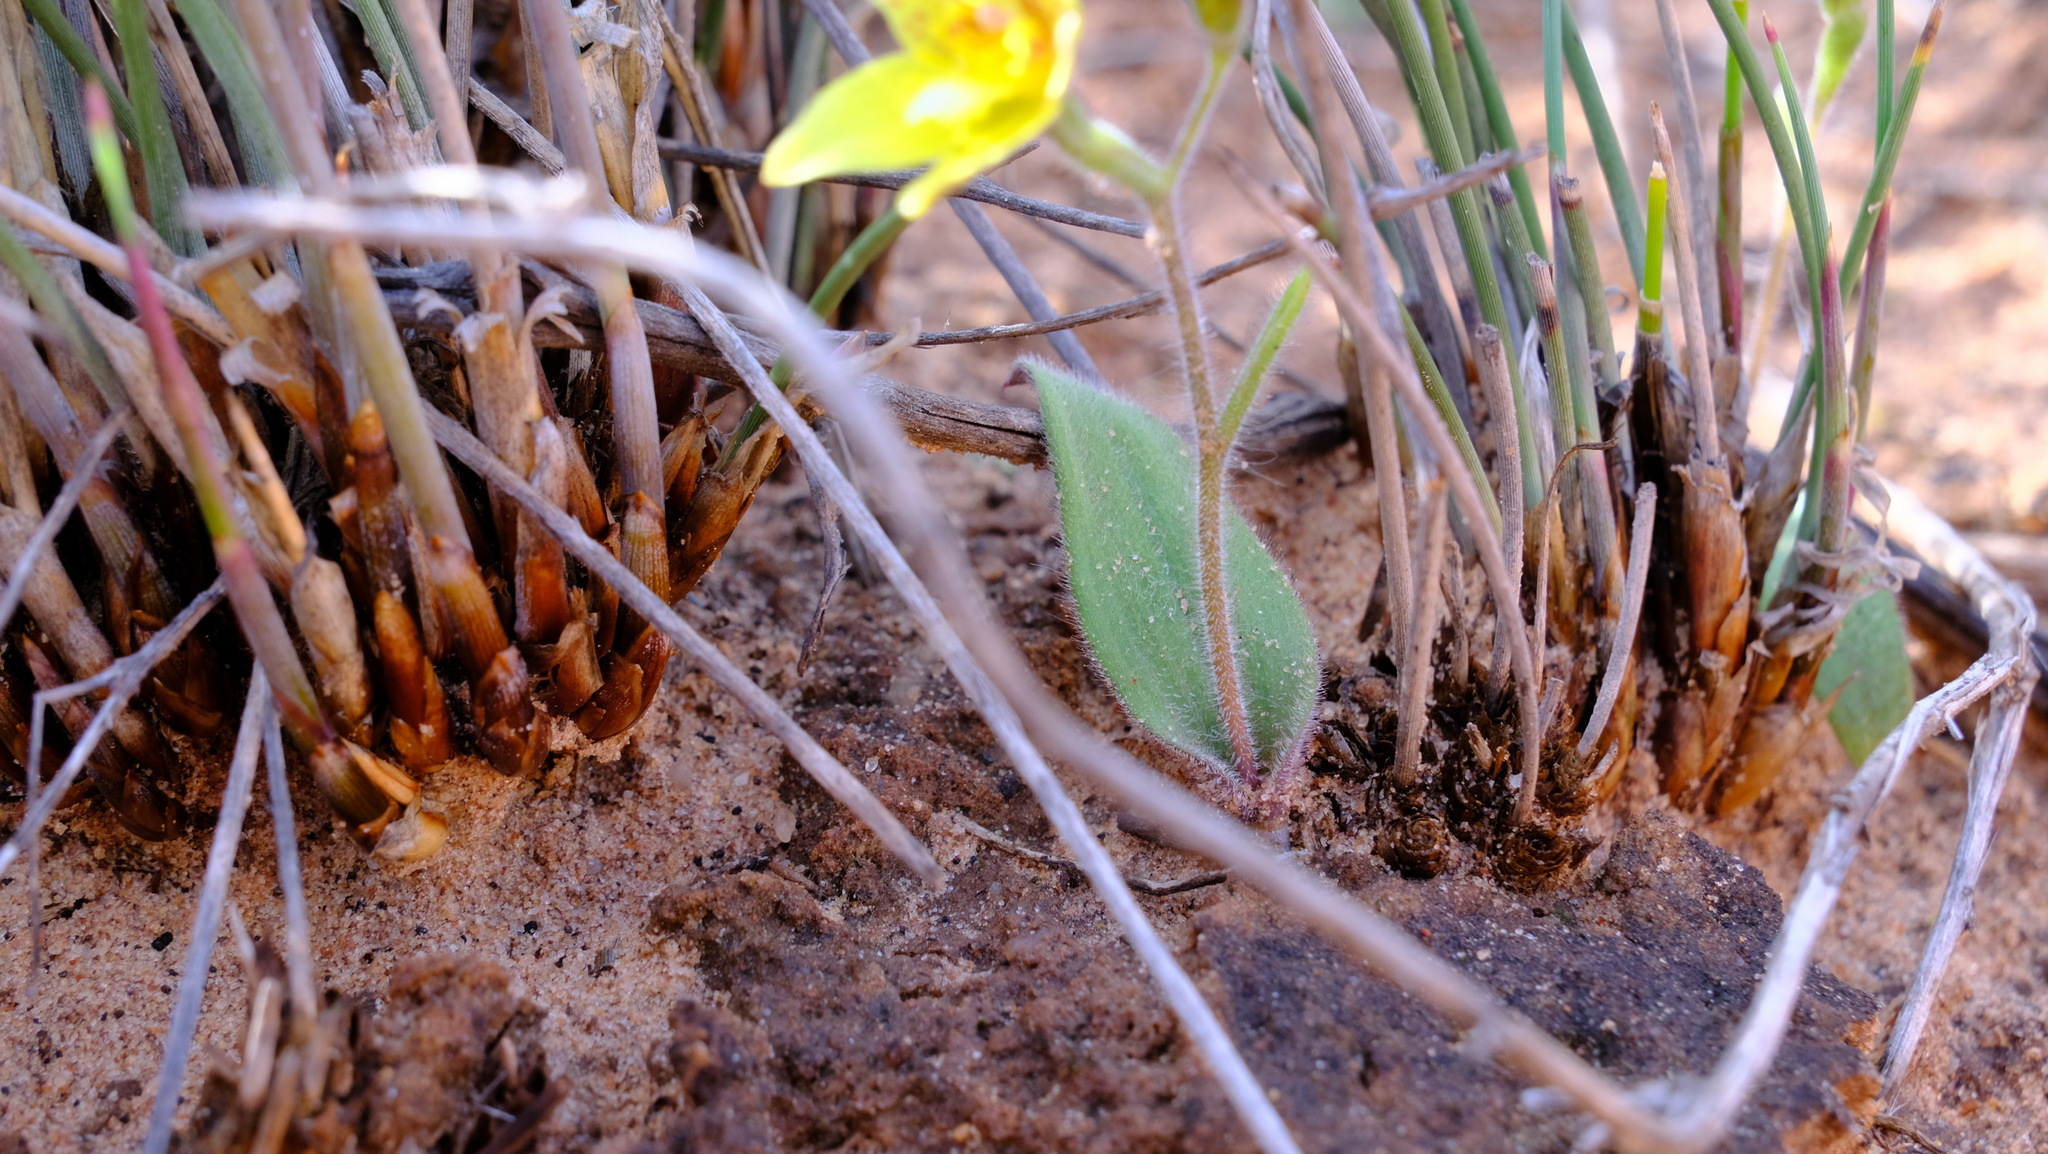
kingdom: Plantae
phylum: Tracheophyta
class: Liliopsida
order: Asparagales
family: Orchidaceae
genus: Caladenia
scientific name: Caladenia flava
